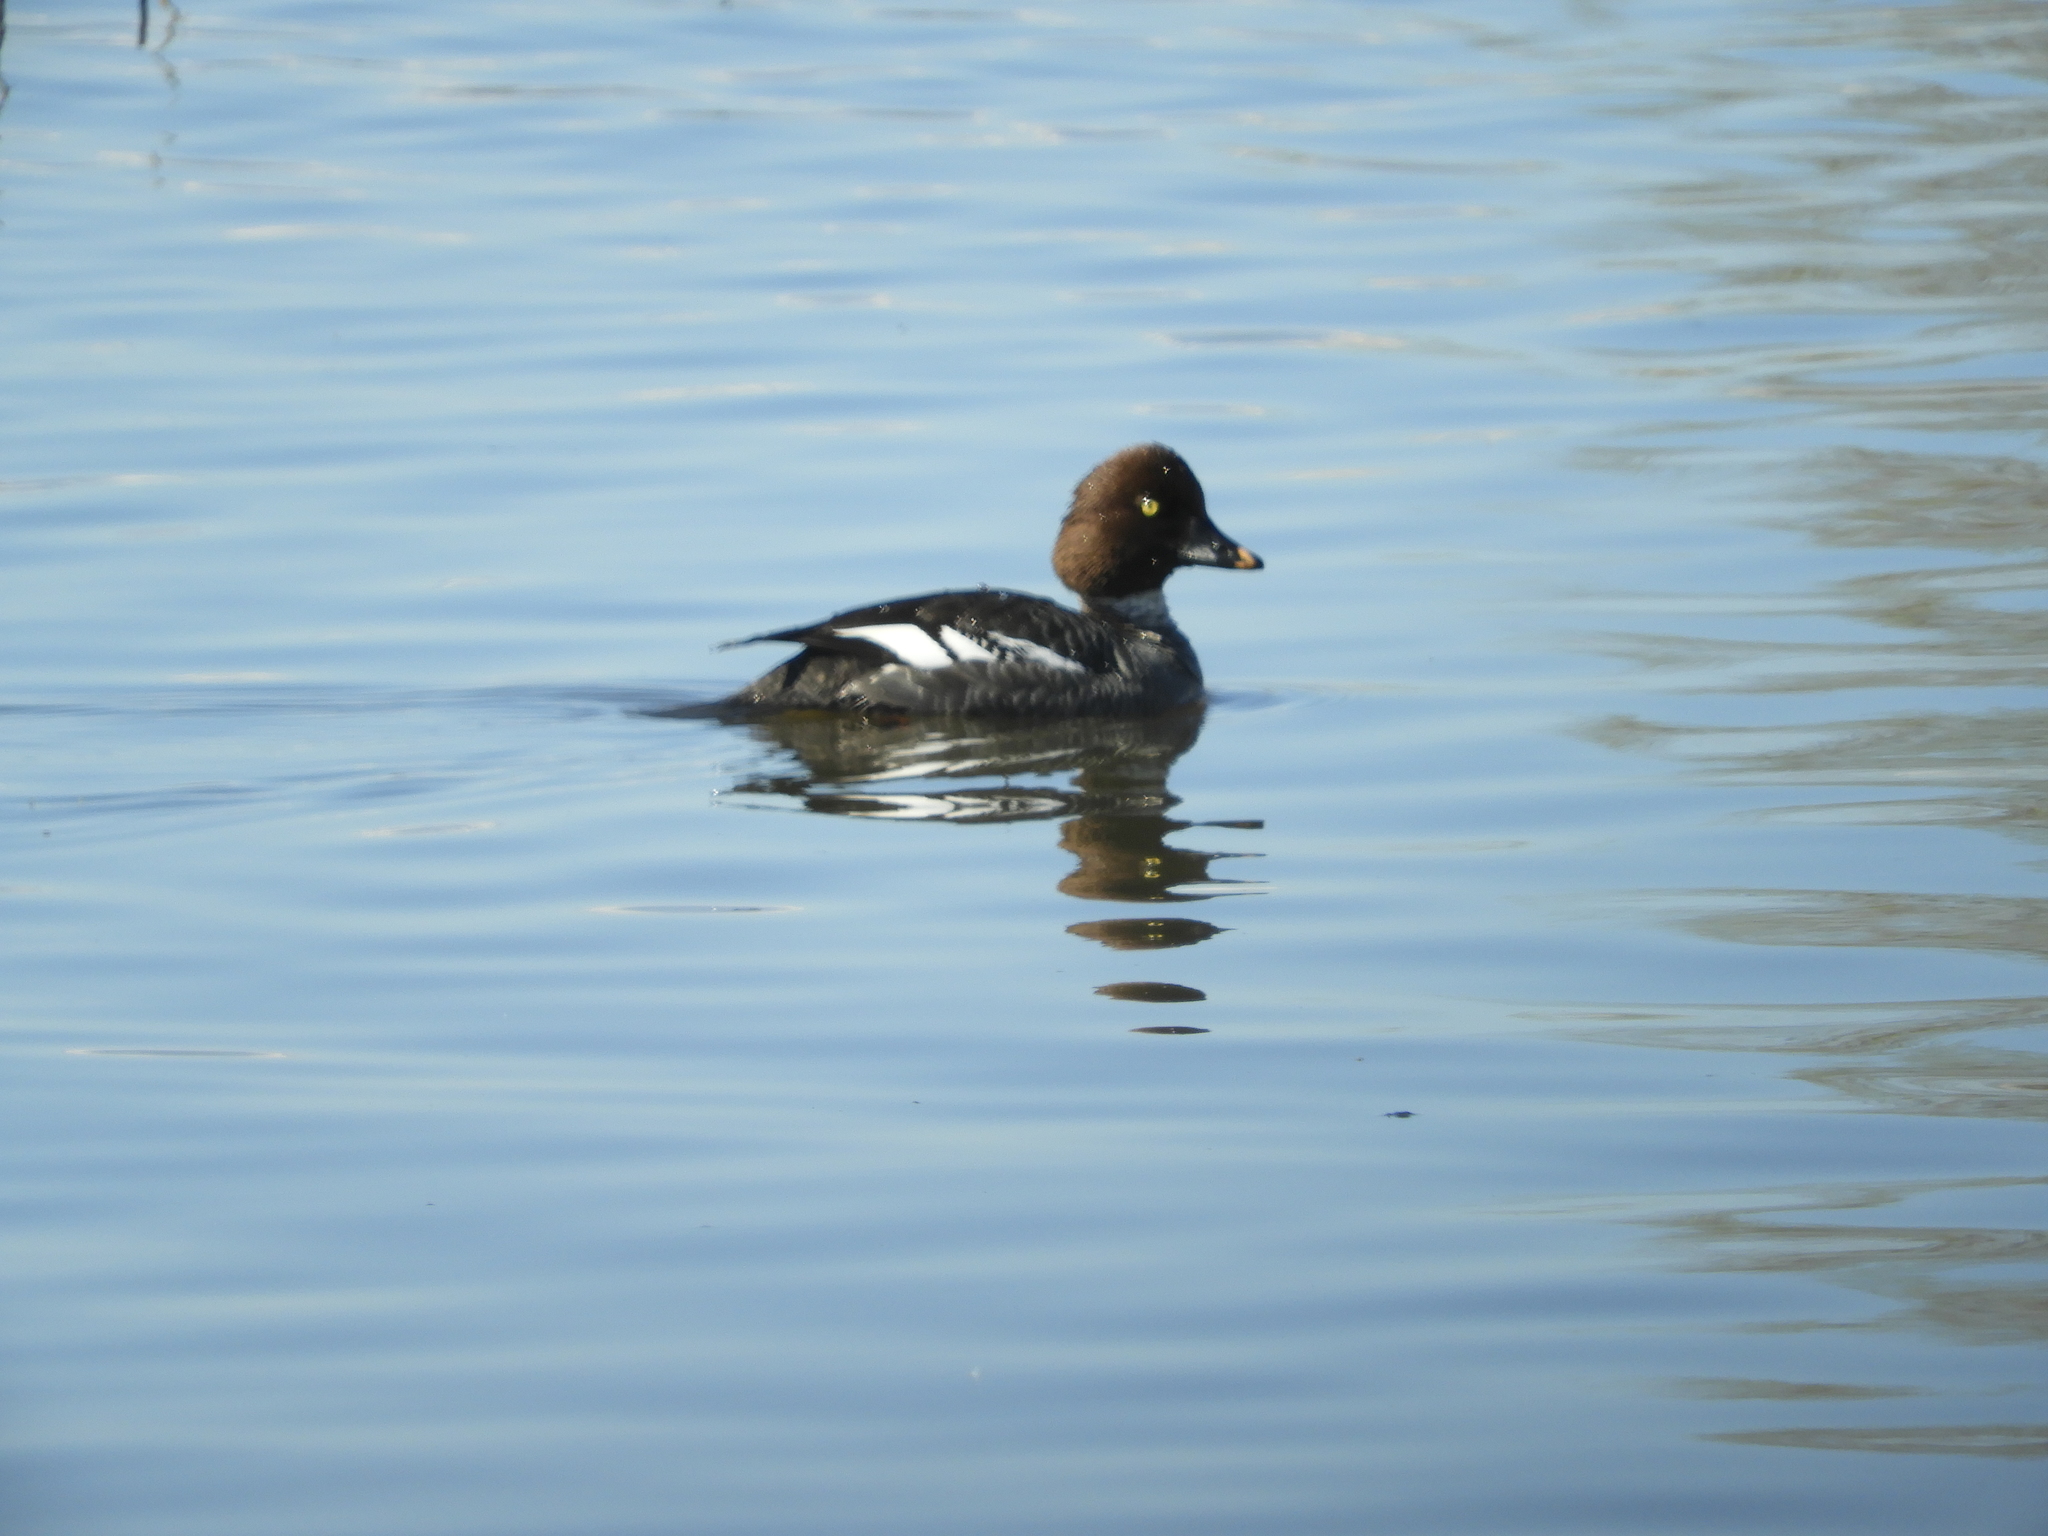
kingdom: Animalia
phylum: Chordata
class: Aves
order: Anseriformes
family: Anatidae
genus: Bucephala
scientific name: Bucephala clangula
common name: Common goldeneye
